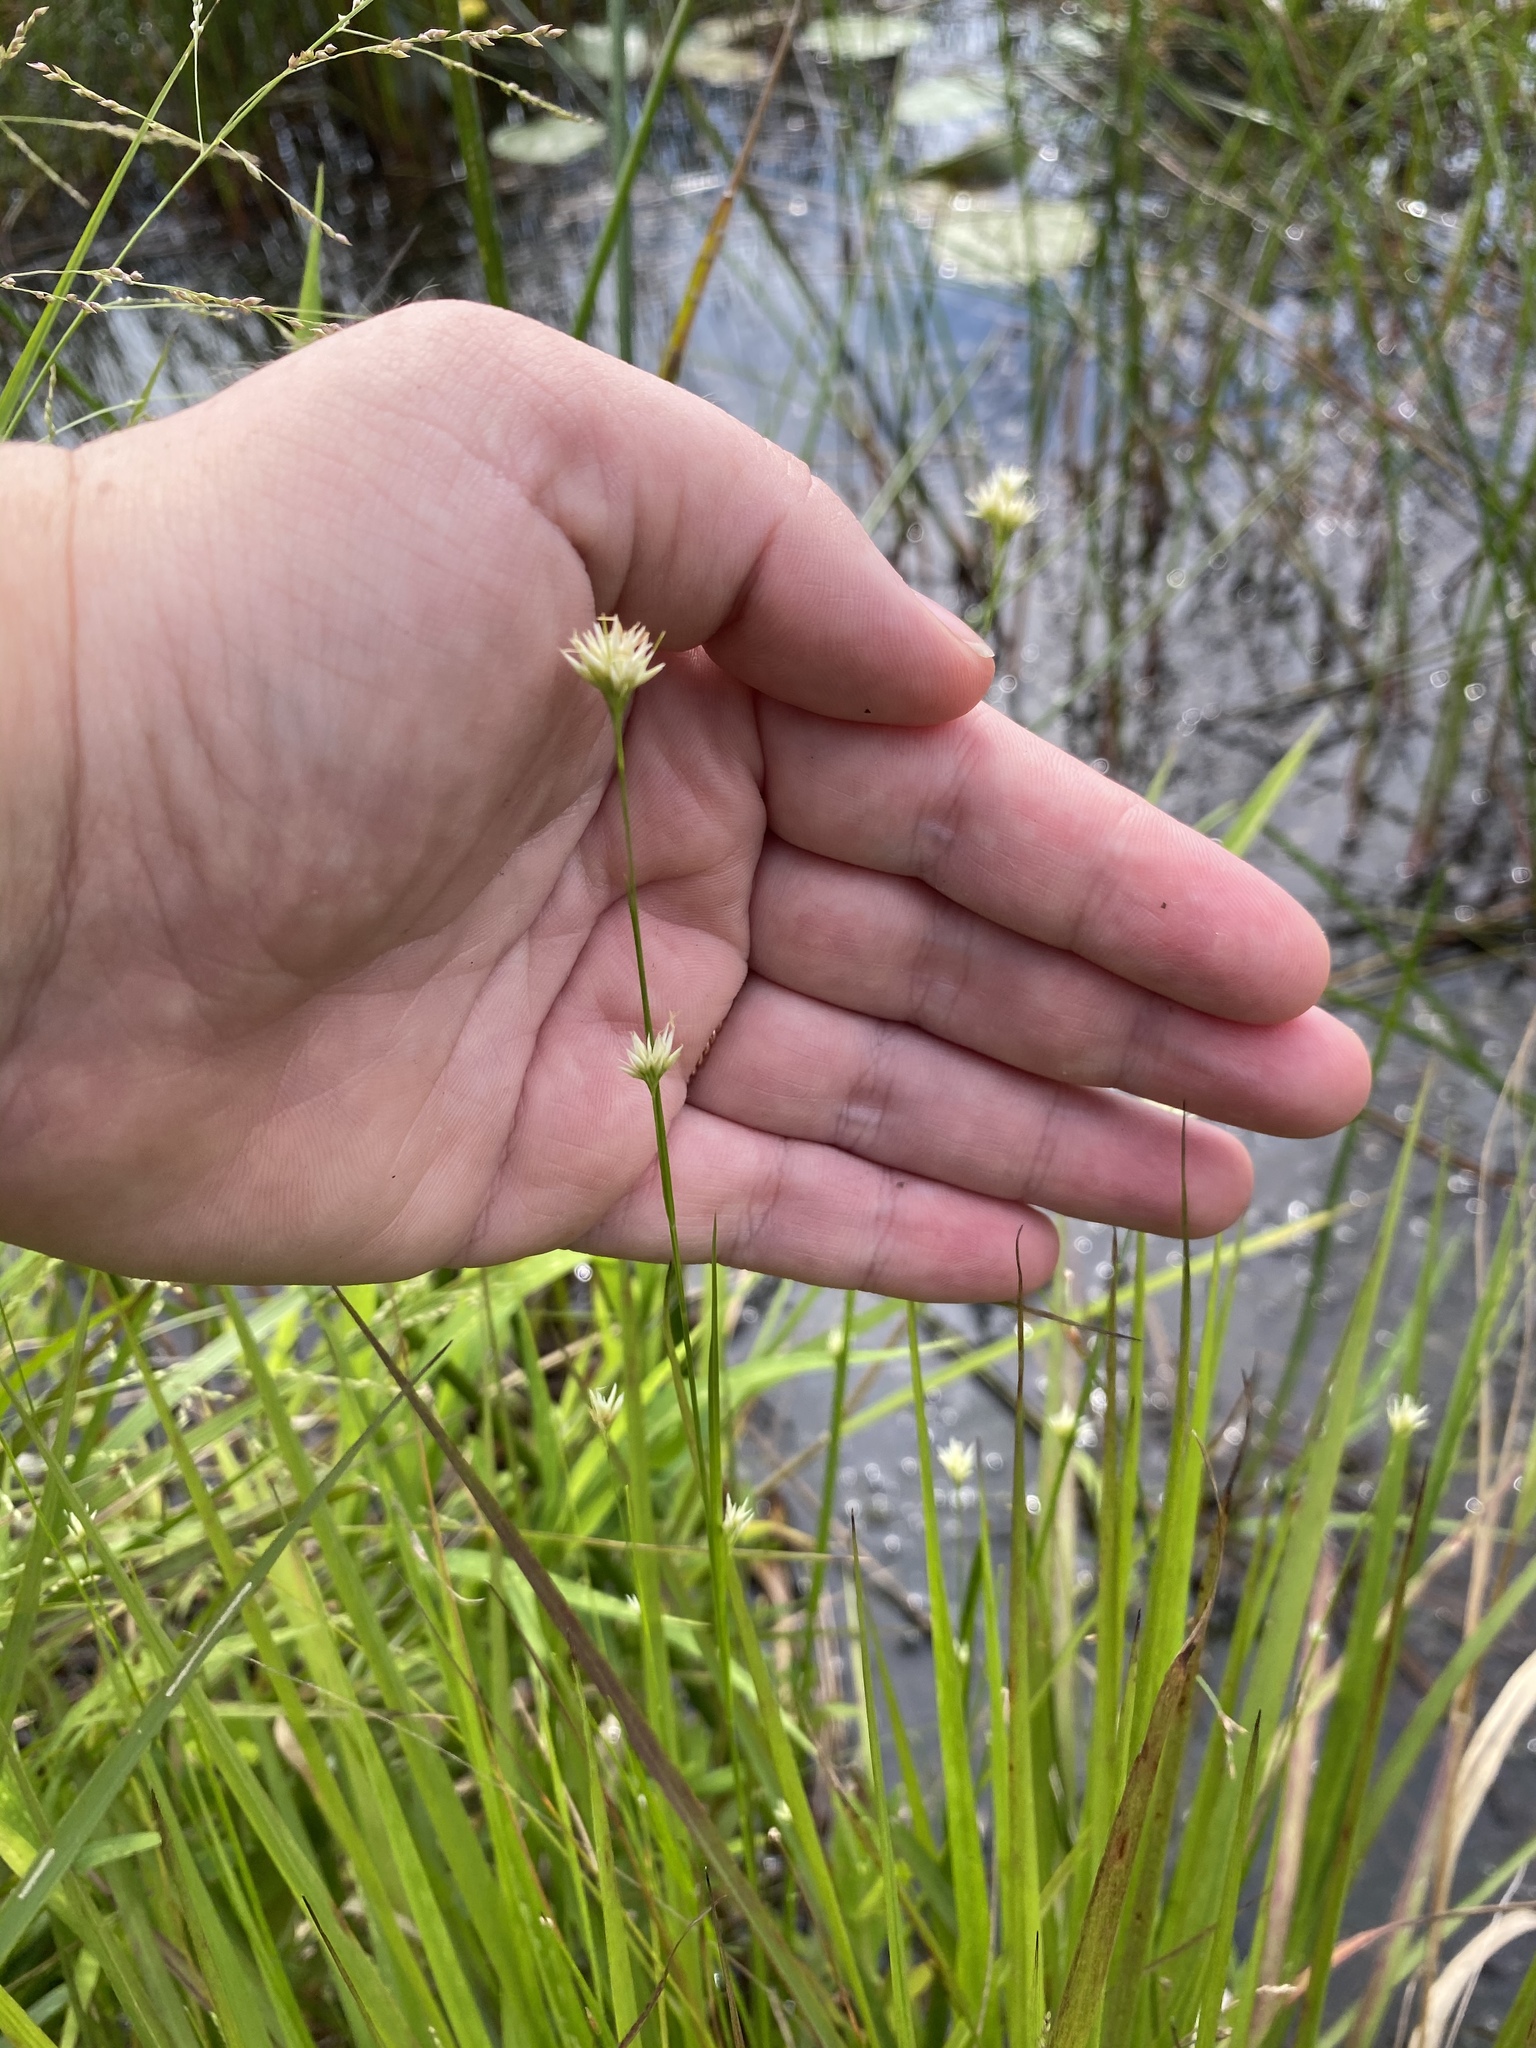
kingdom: Plantae
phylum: Tracheophyta
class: Liliopsida
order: Poales
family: Cyperaceae
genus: Rhynchospora
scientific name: Rhynchospora alba
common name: White beak-sedge
